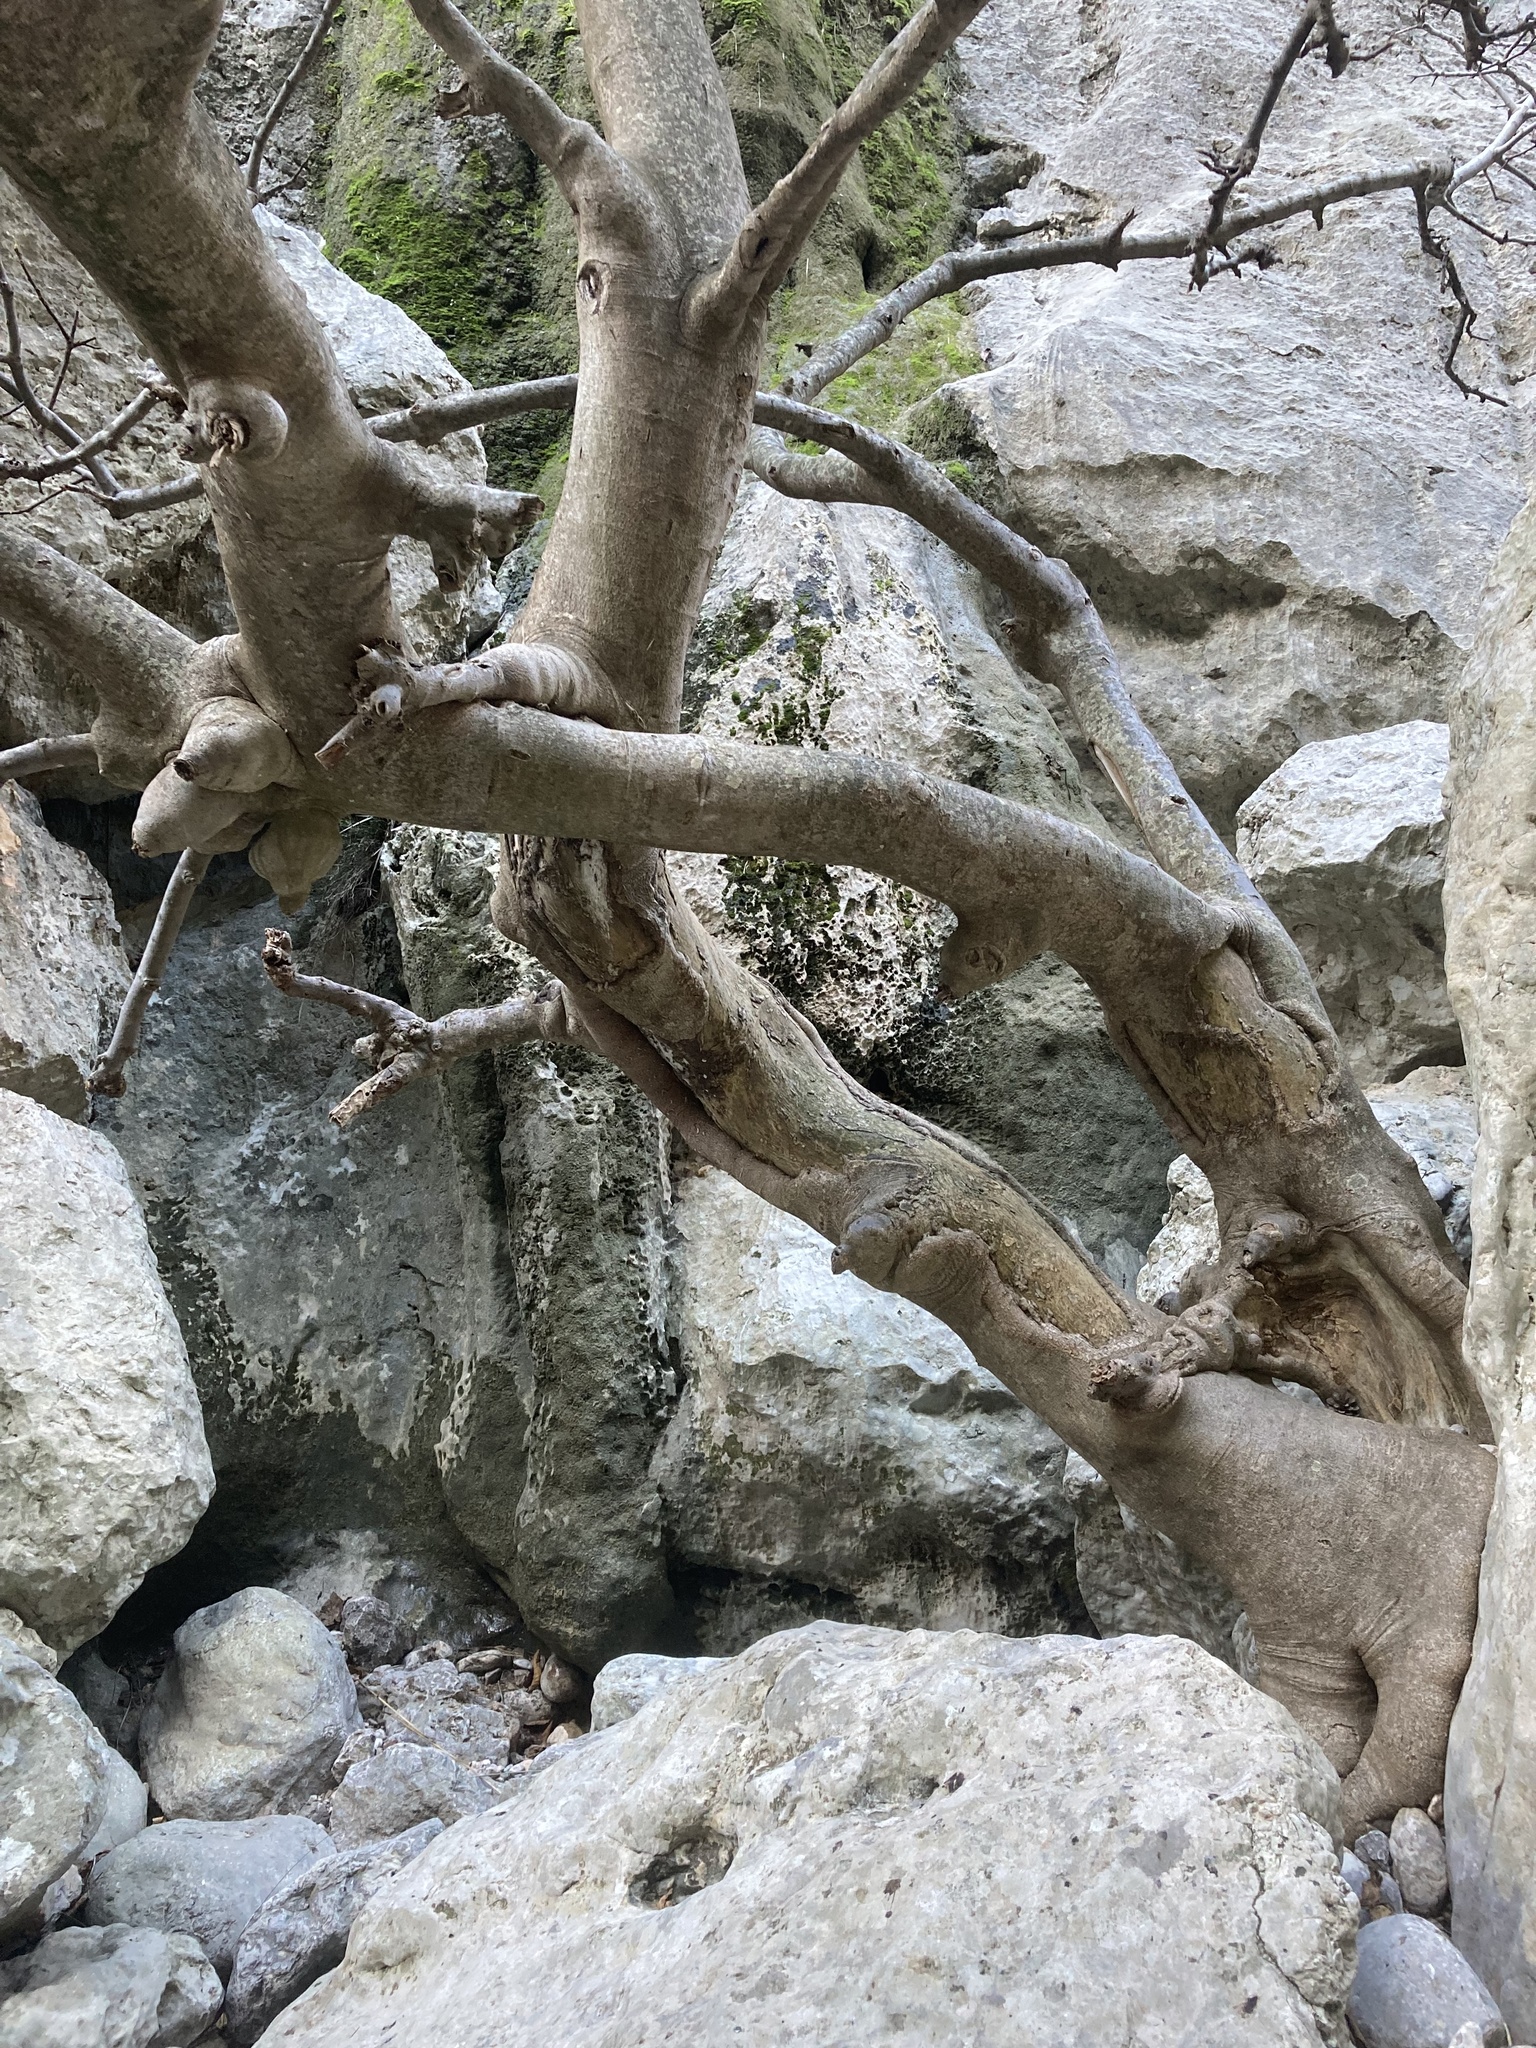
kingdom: Plantae
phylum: Tracheophyta
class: Magnoliopsida
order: Rosales
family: Moraceae
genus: Ficus
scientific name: Ficus carica
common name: Fig
